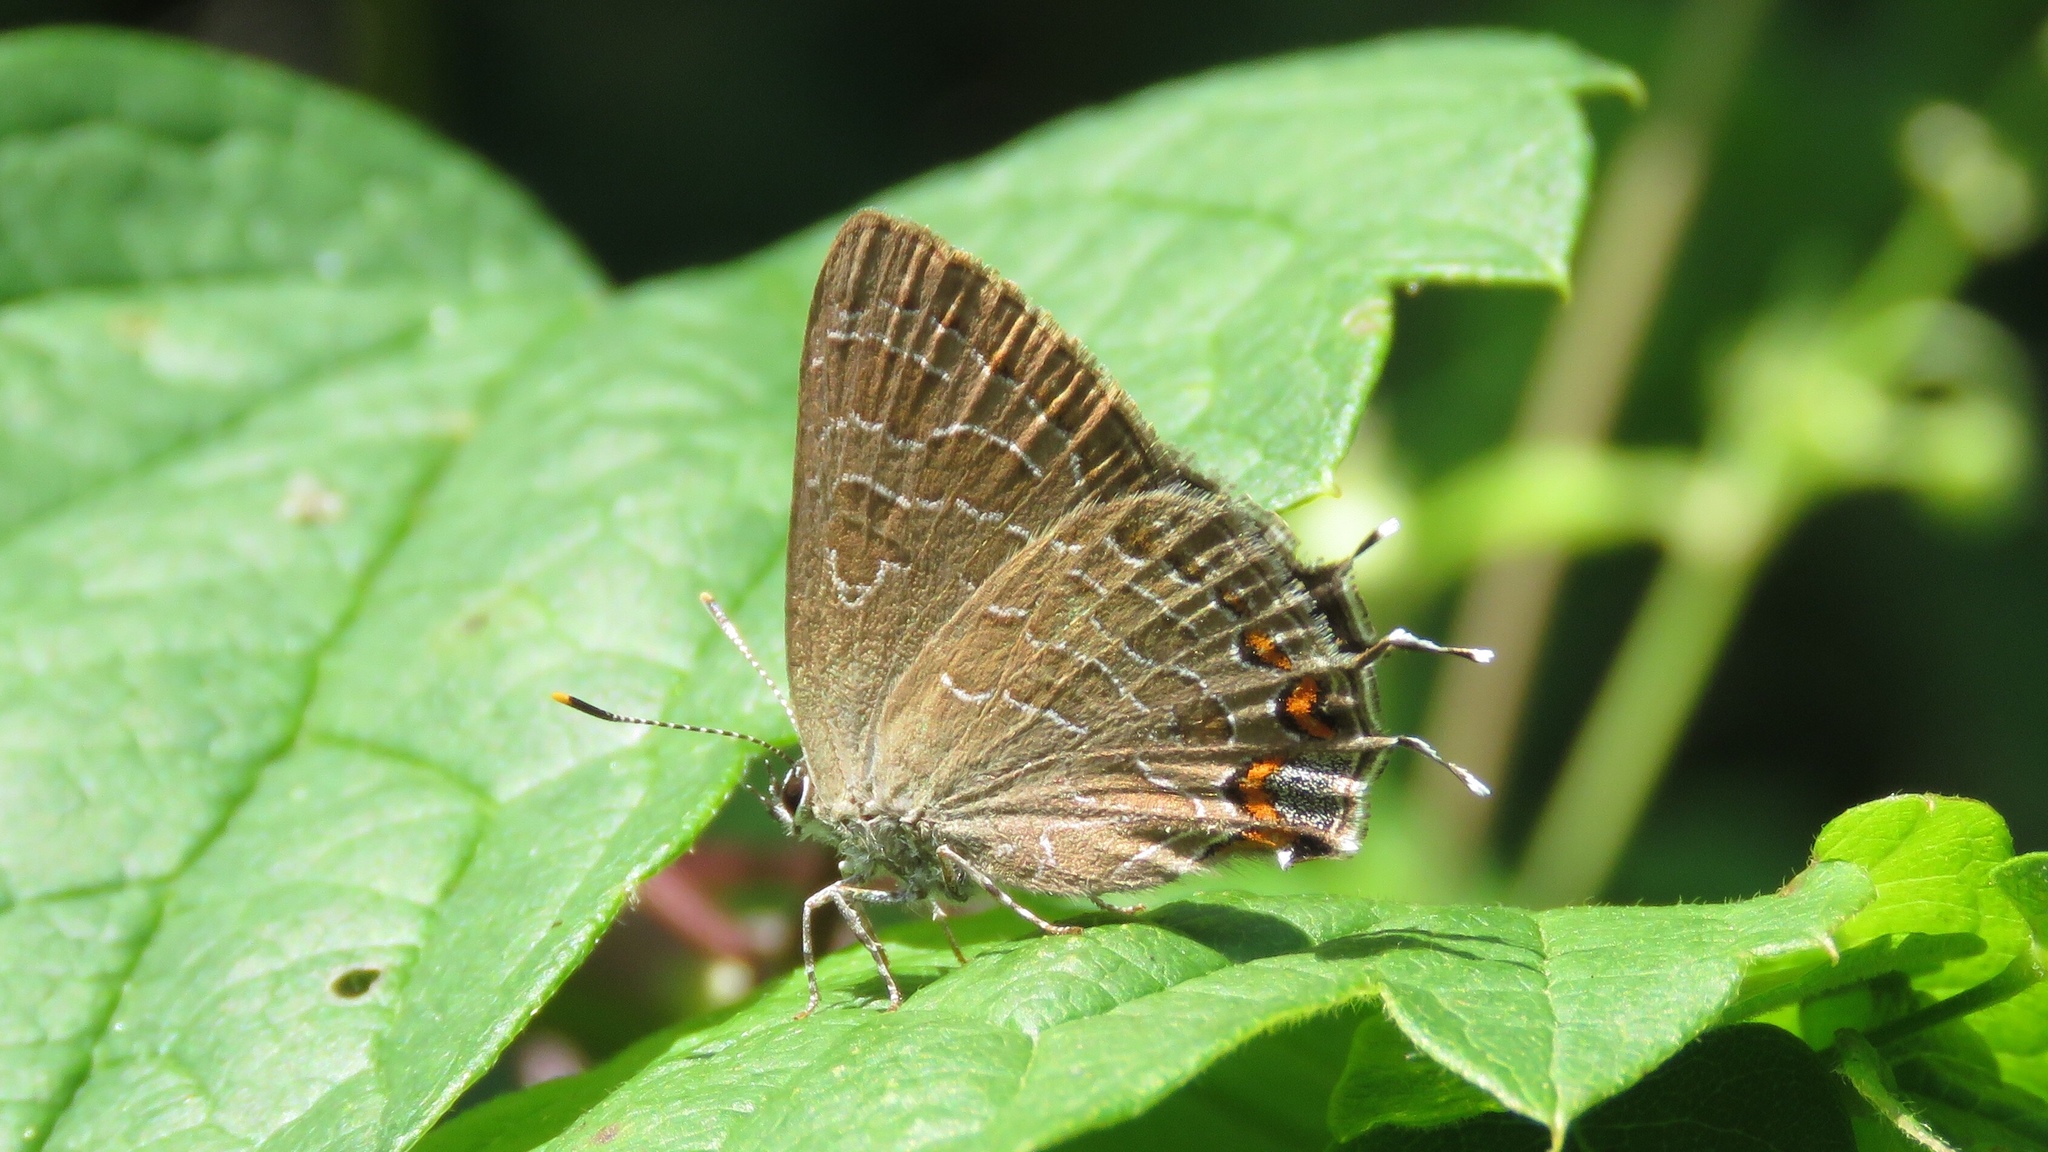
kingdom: Animalia
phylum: Arthropoda
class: Insecta
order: Lepidoptera
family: Lycaenidae
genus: Satyrium
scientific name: Satyrium liparops
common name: Striped hairstreak
